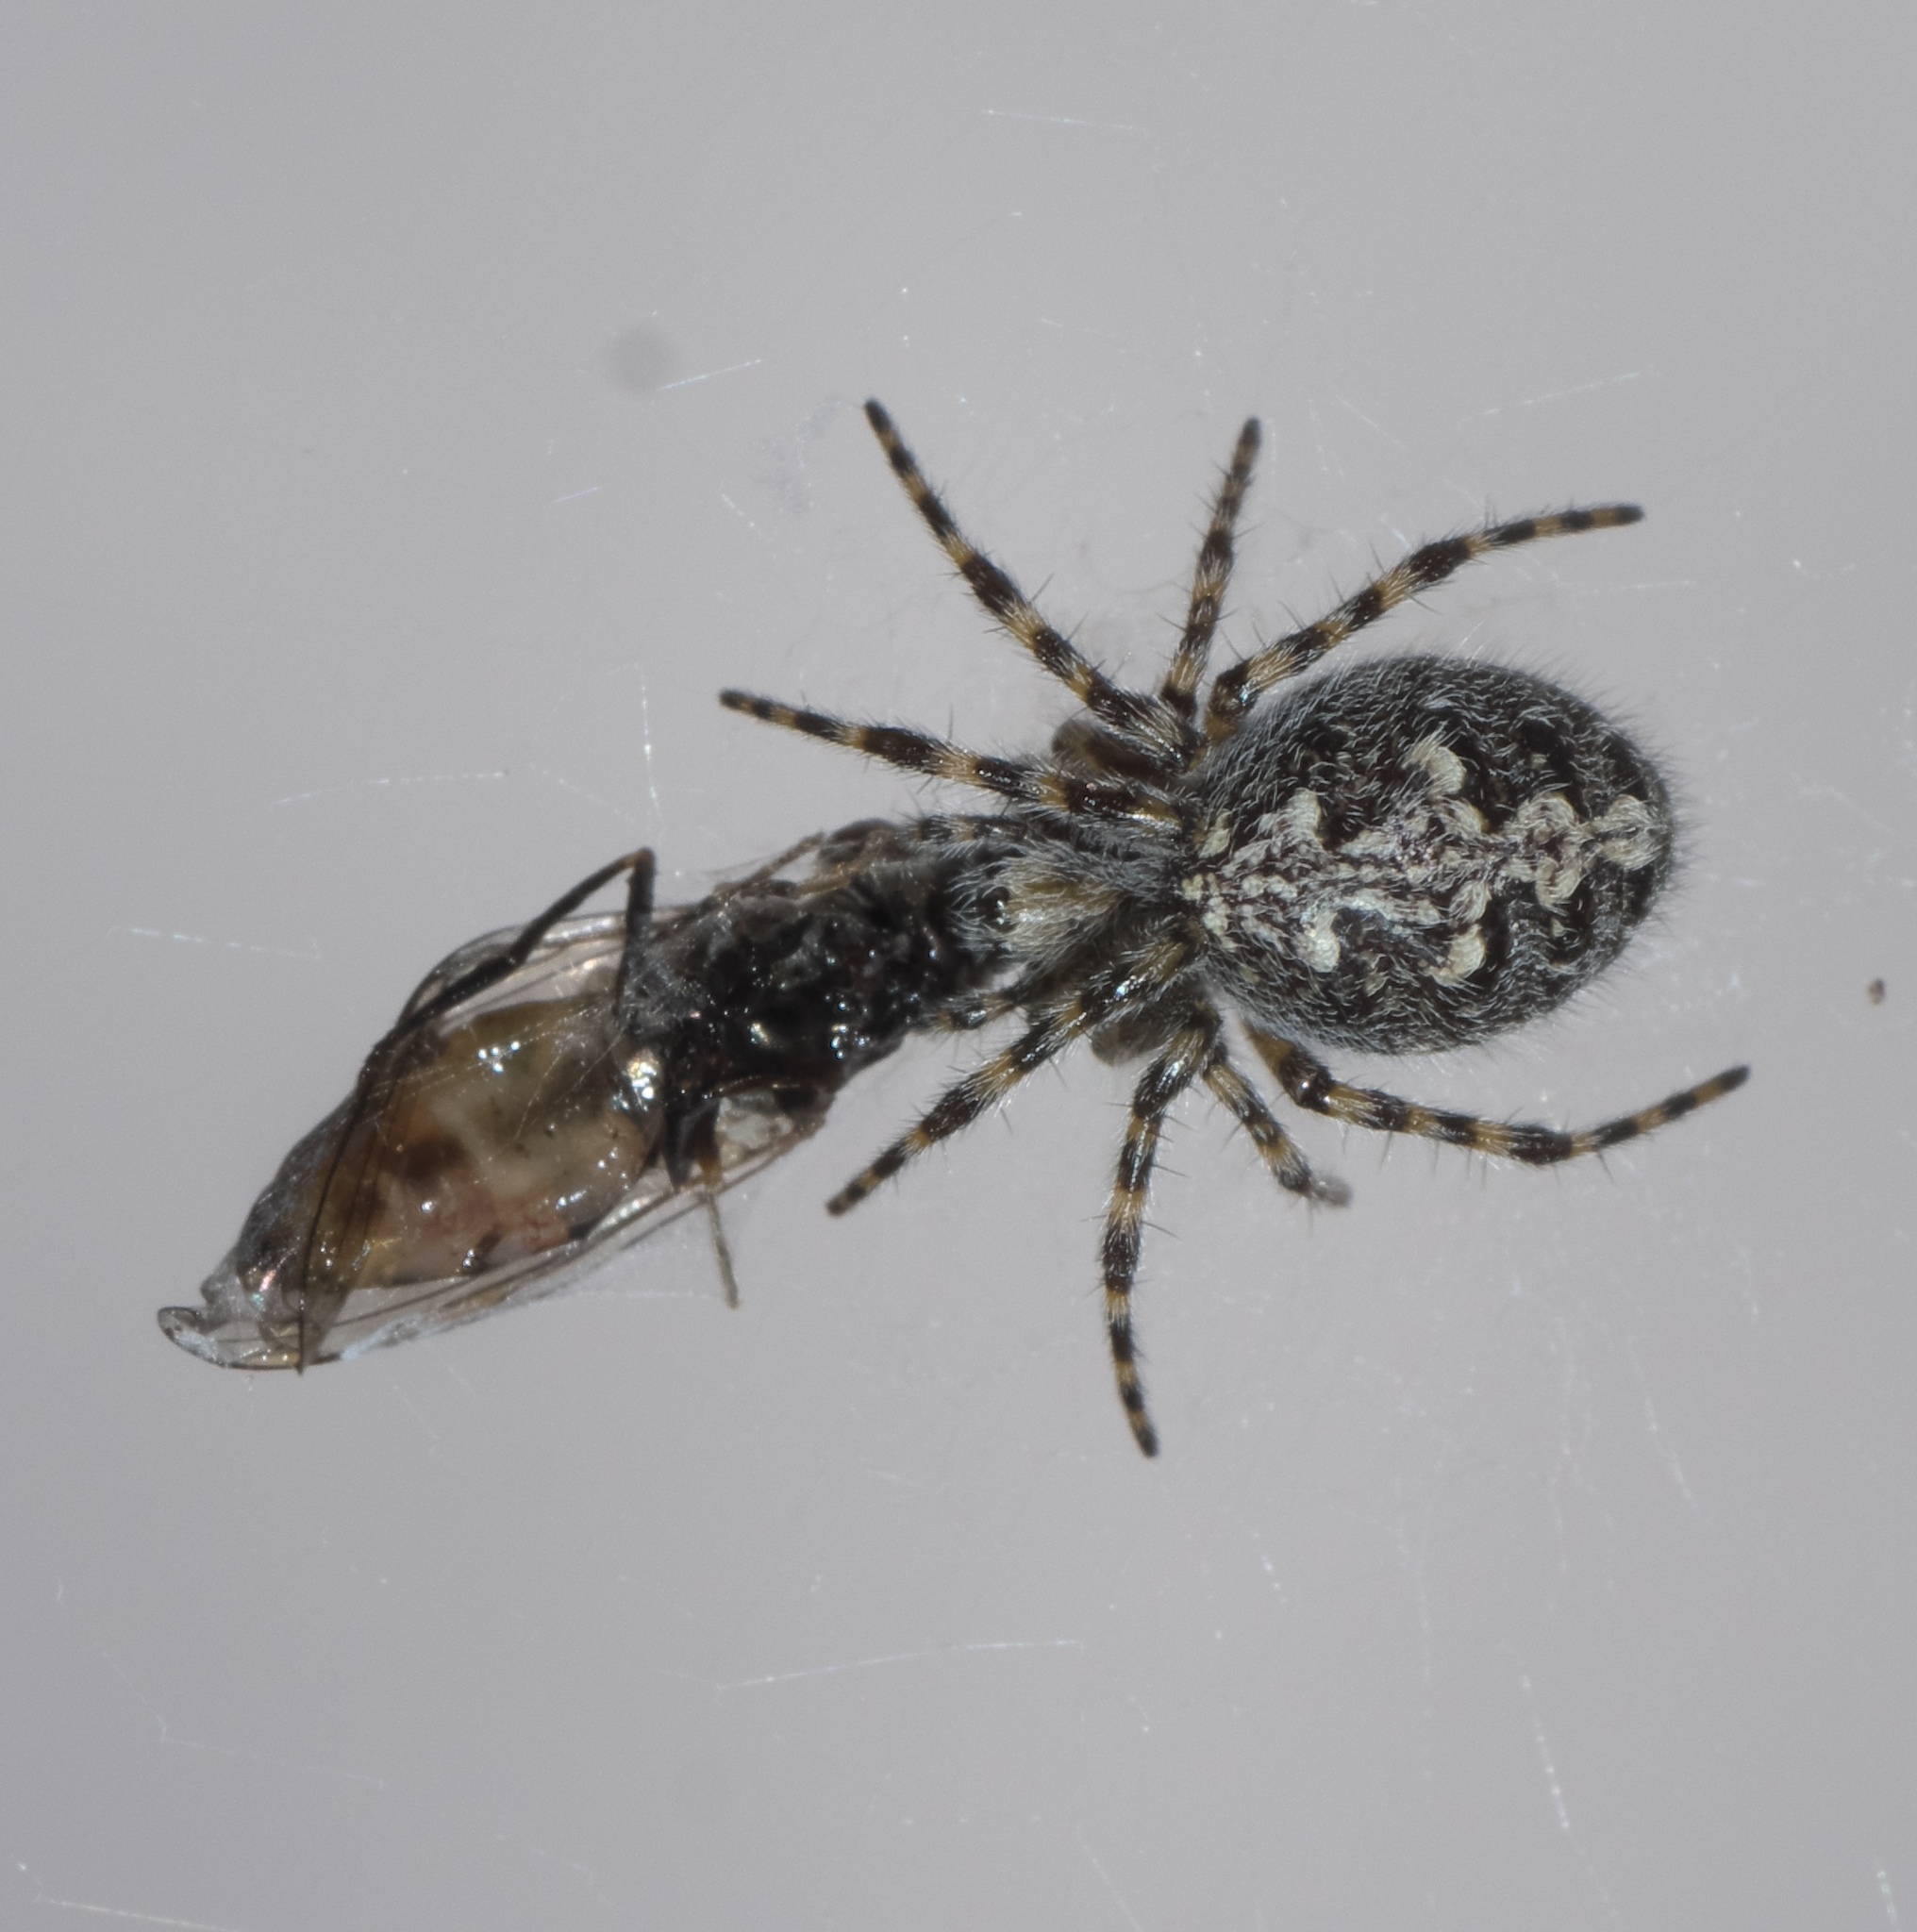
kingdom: Animalia
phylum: Arthropoda
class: Arachnida
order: Araneae
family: Araneidae
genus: Aculepeira
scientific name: Aculepeira carbonarioides
